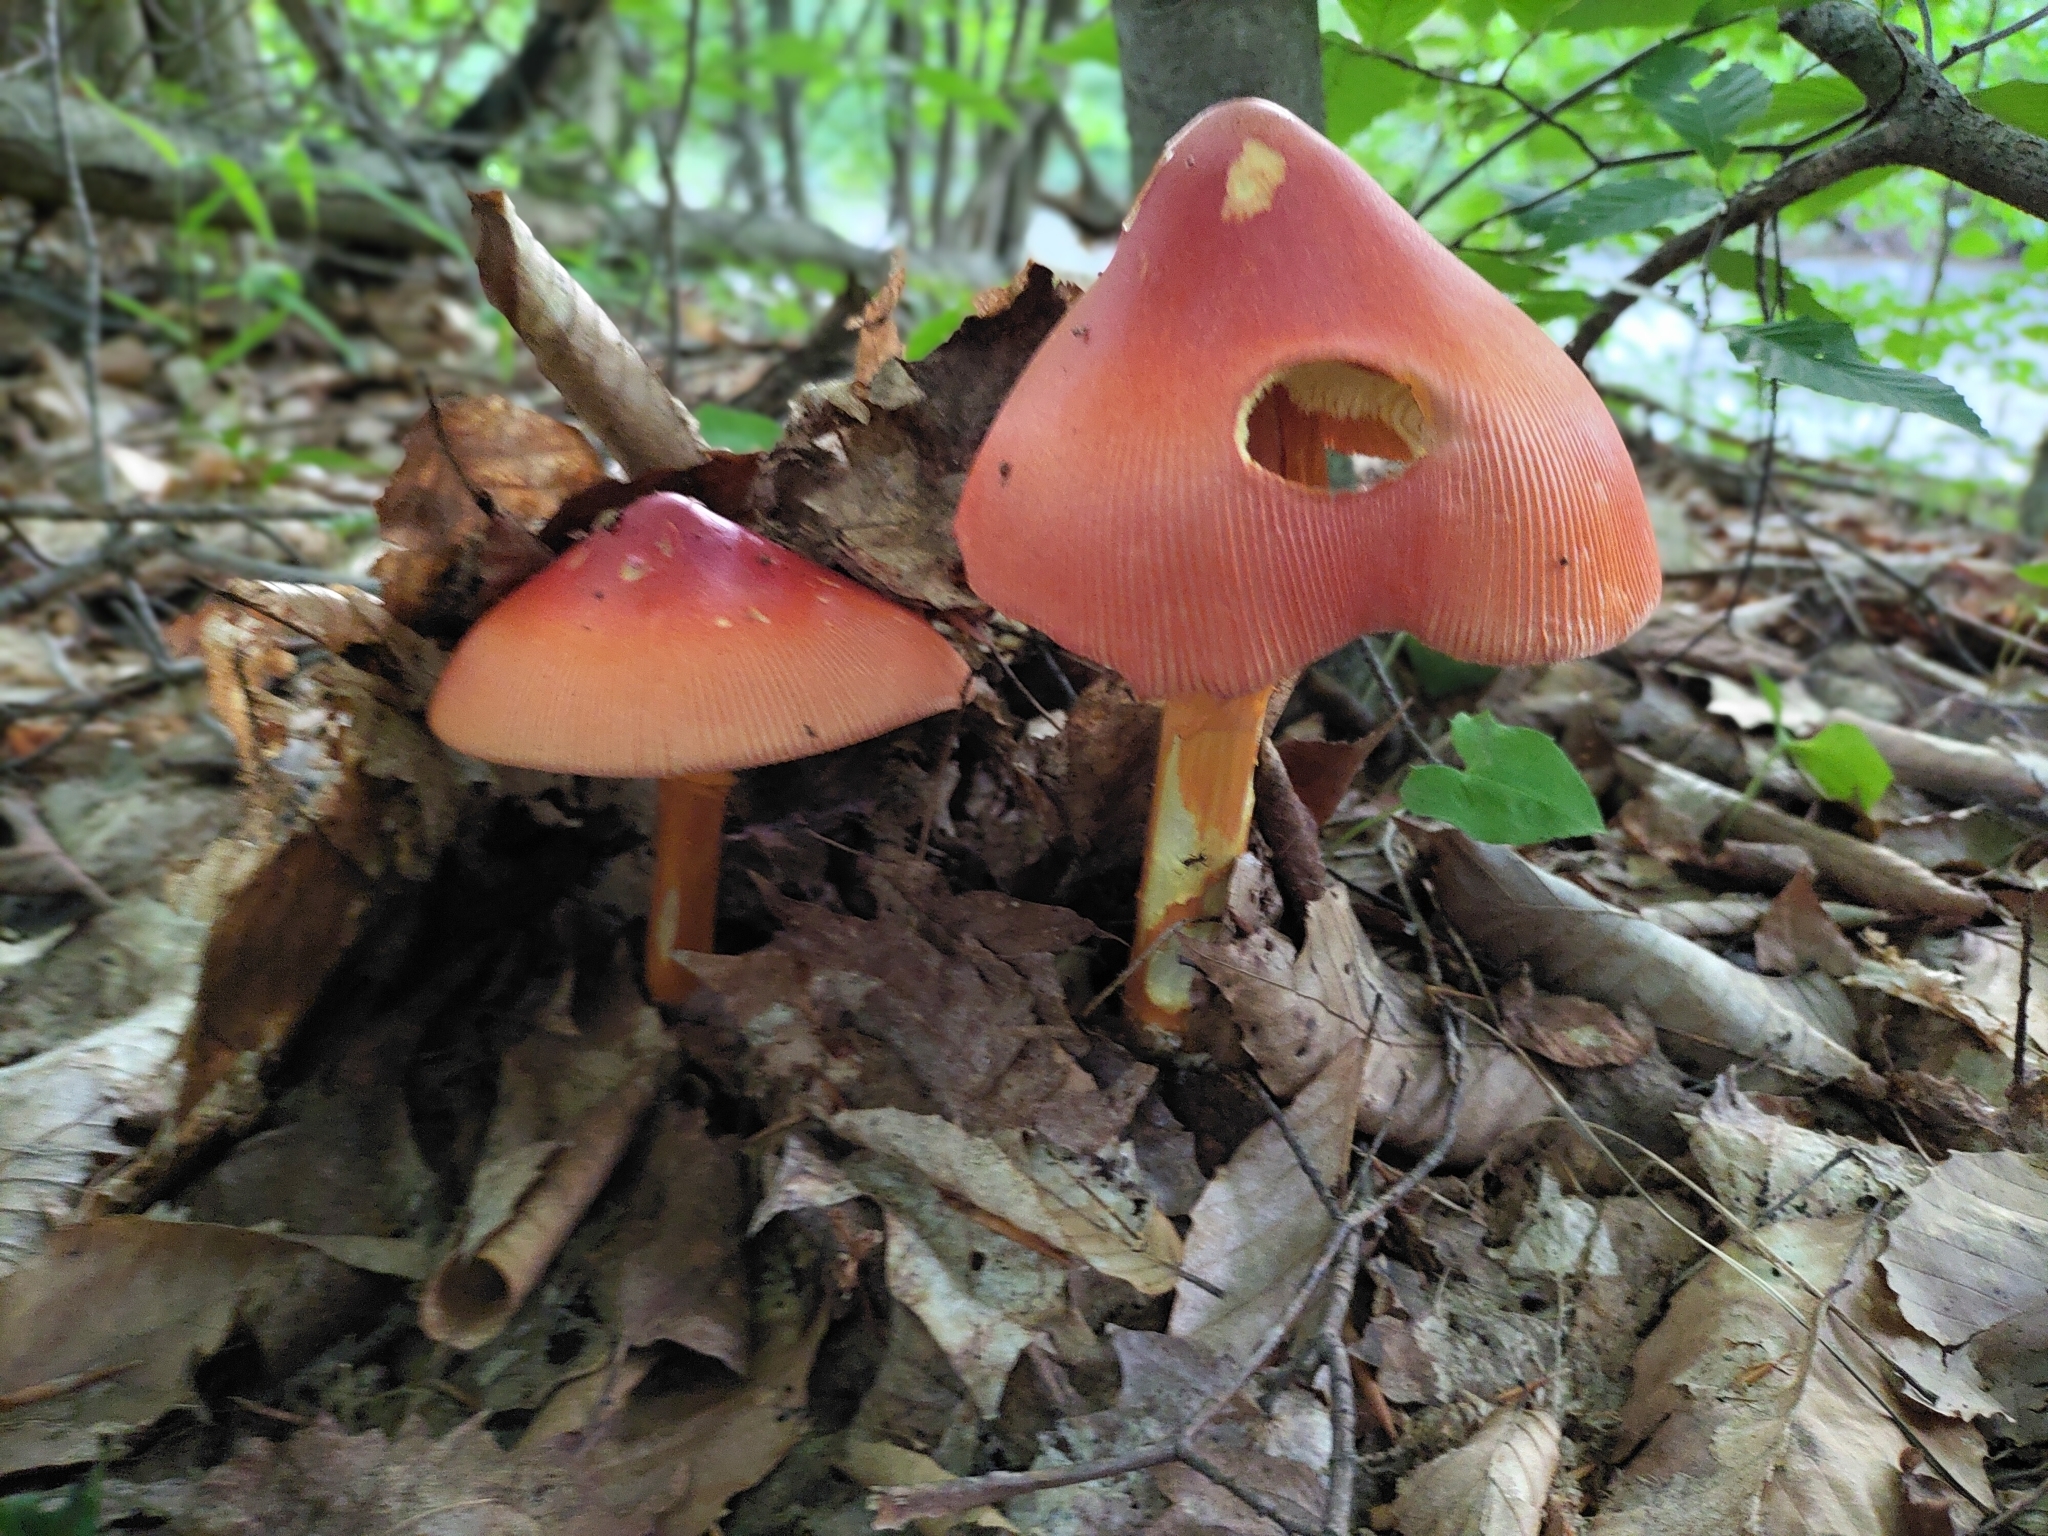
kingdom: Fungi
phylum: Basidiomycota
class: Agaricomycetes
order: Agaricales
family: Amanitaceae
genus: Amanita
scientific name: Amanita jacksonii
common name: Jackson's slender caesar
